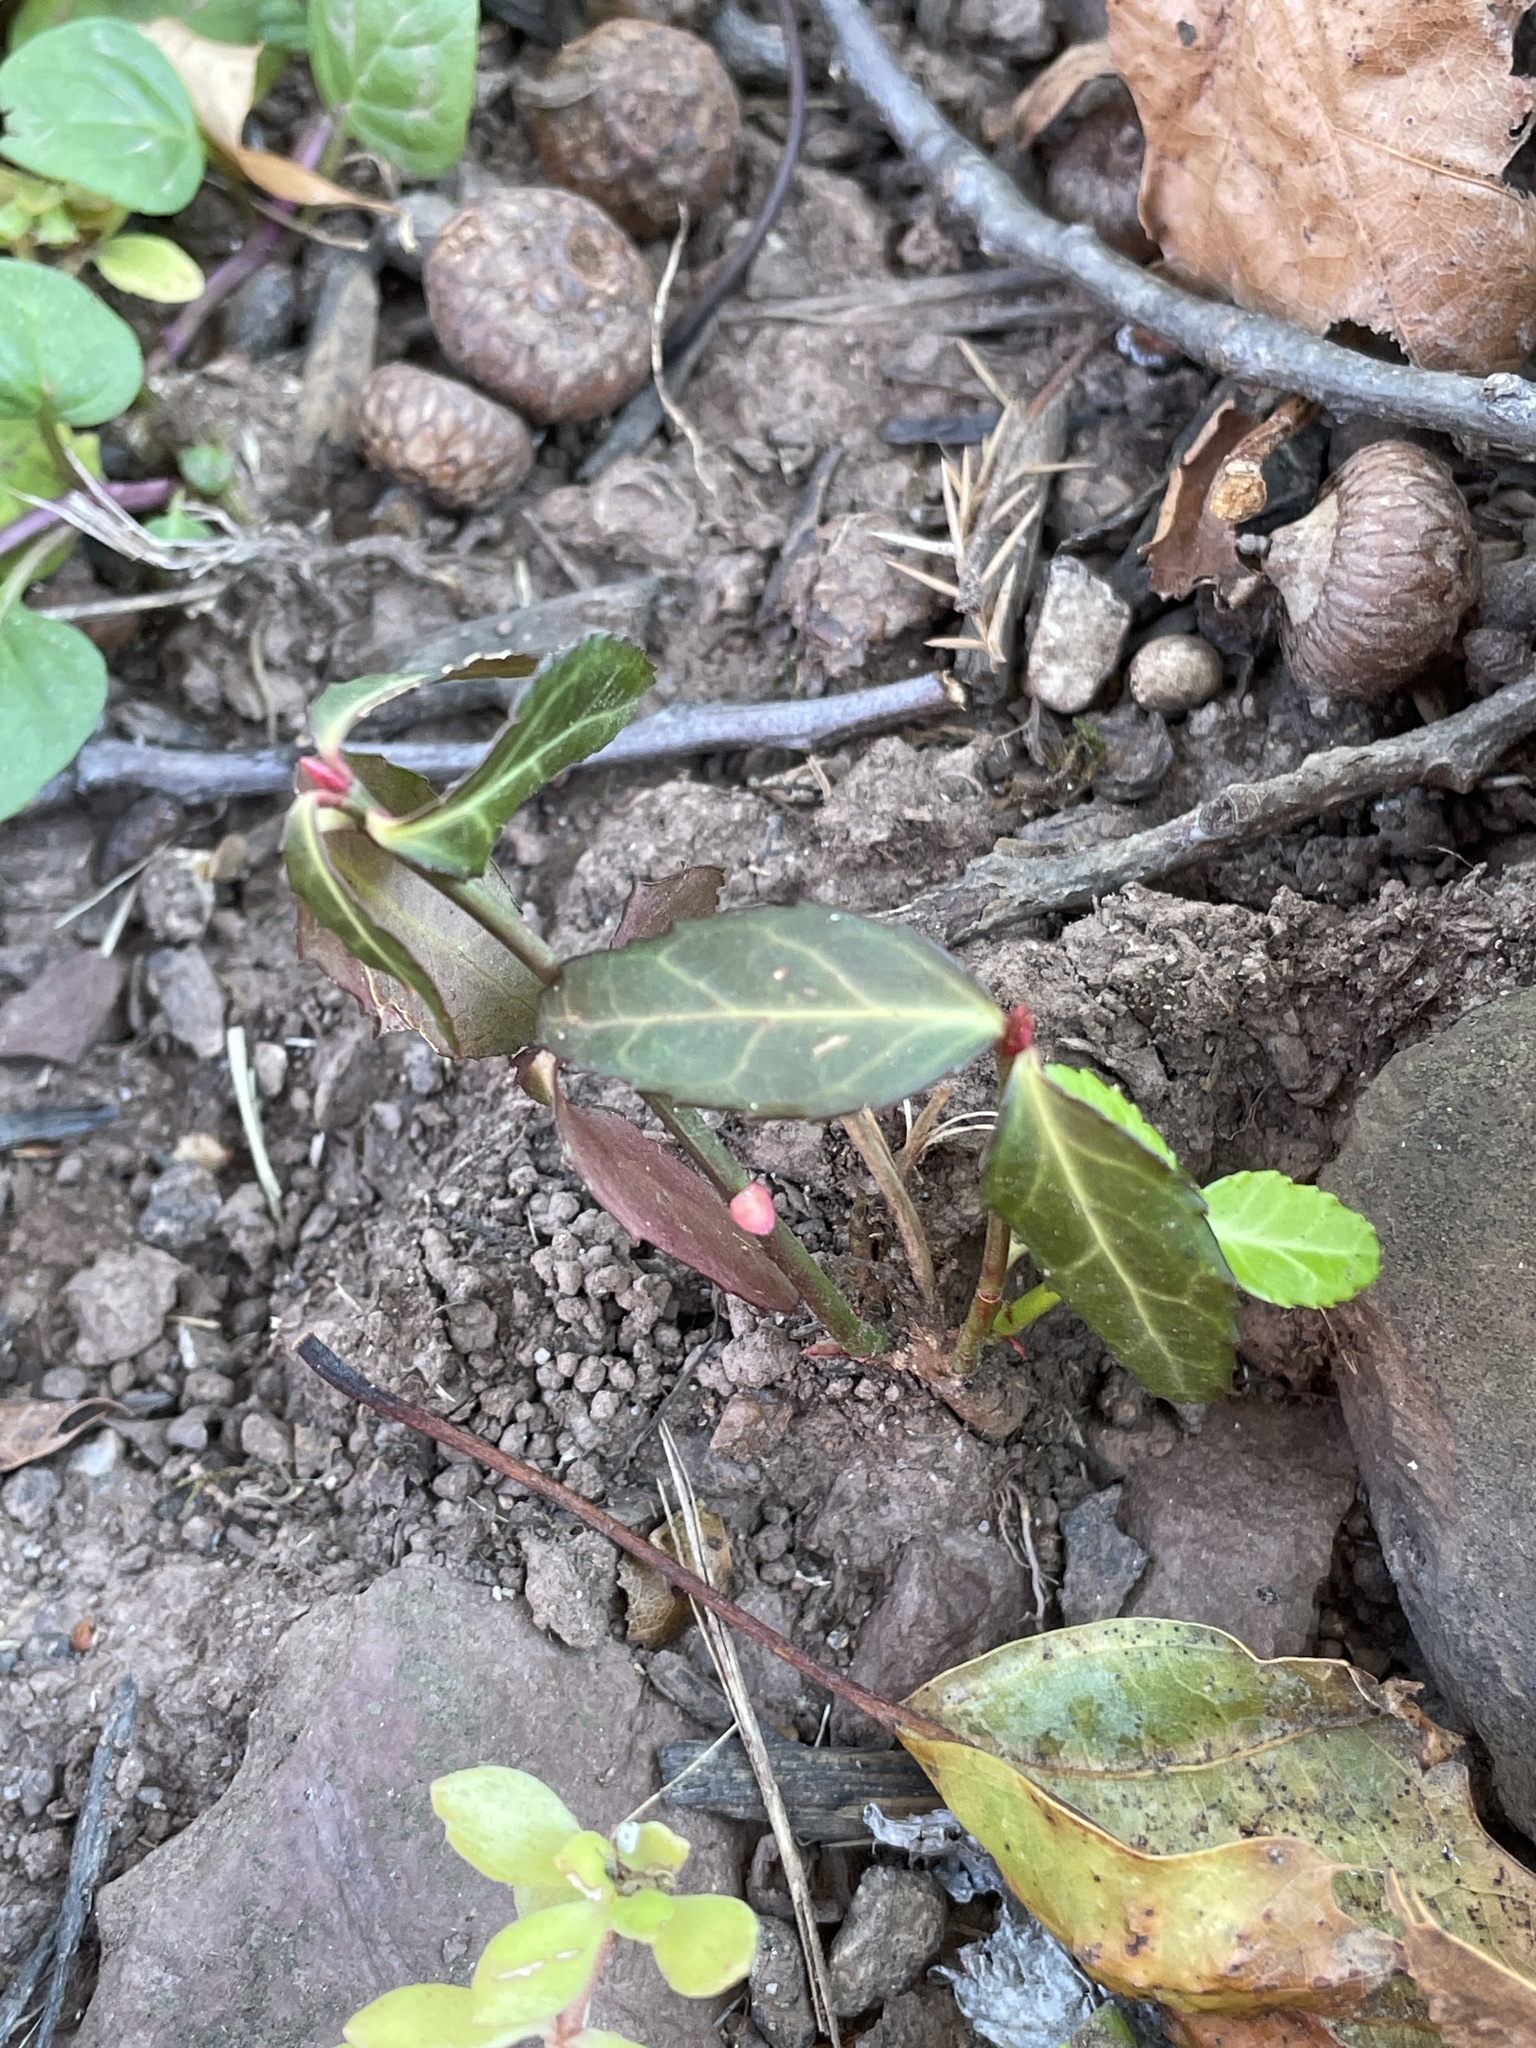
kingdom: Plantae
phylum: Tracheophyta
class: Magnoliopsida
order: Celastrales
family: Celastraceae
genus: Euonymus
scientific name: Euonymus fortunei
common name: Climbing euonymus
